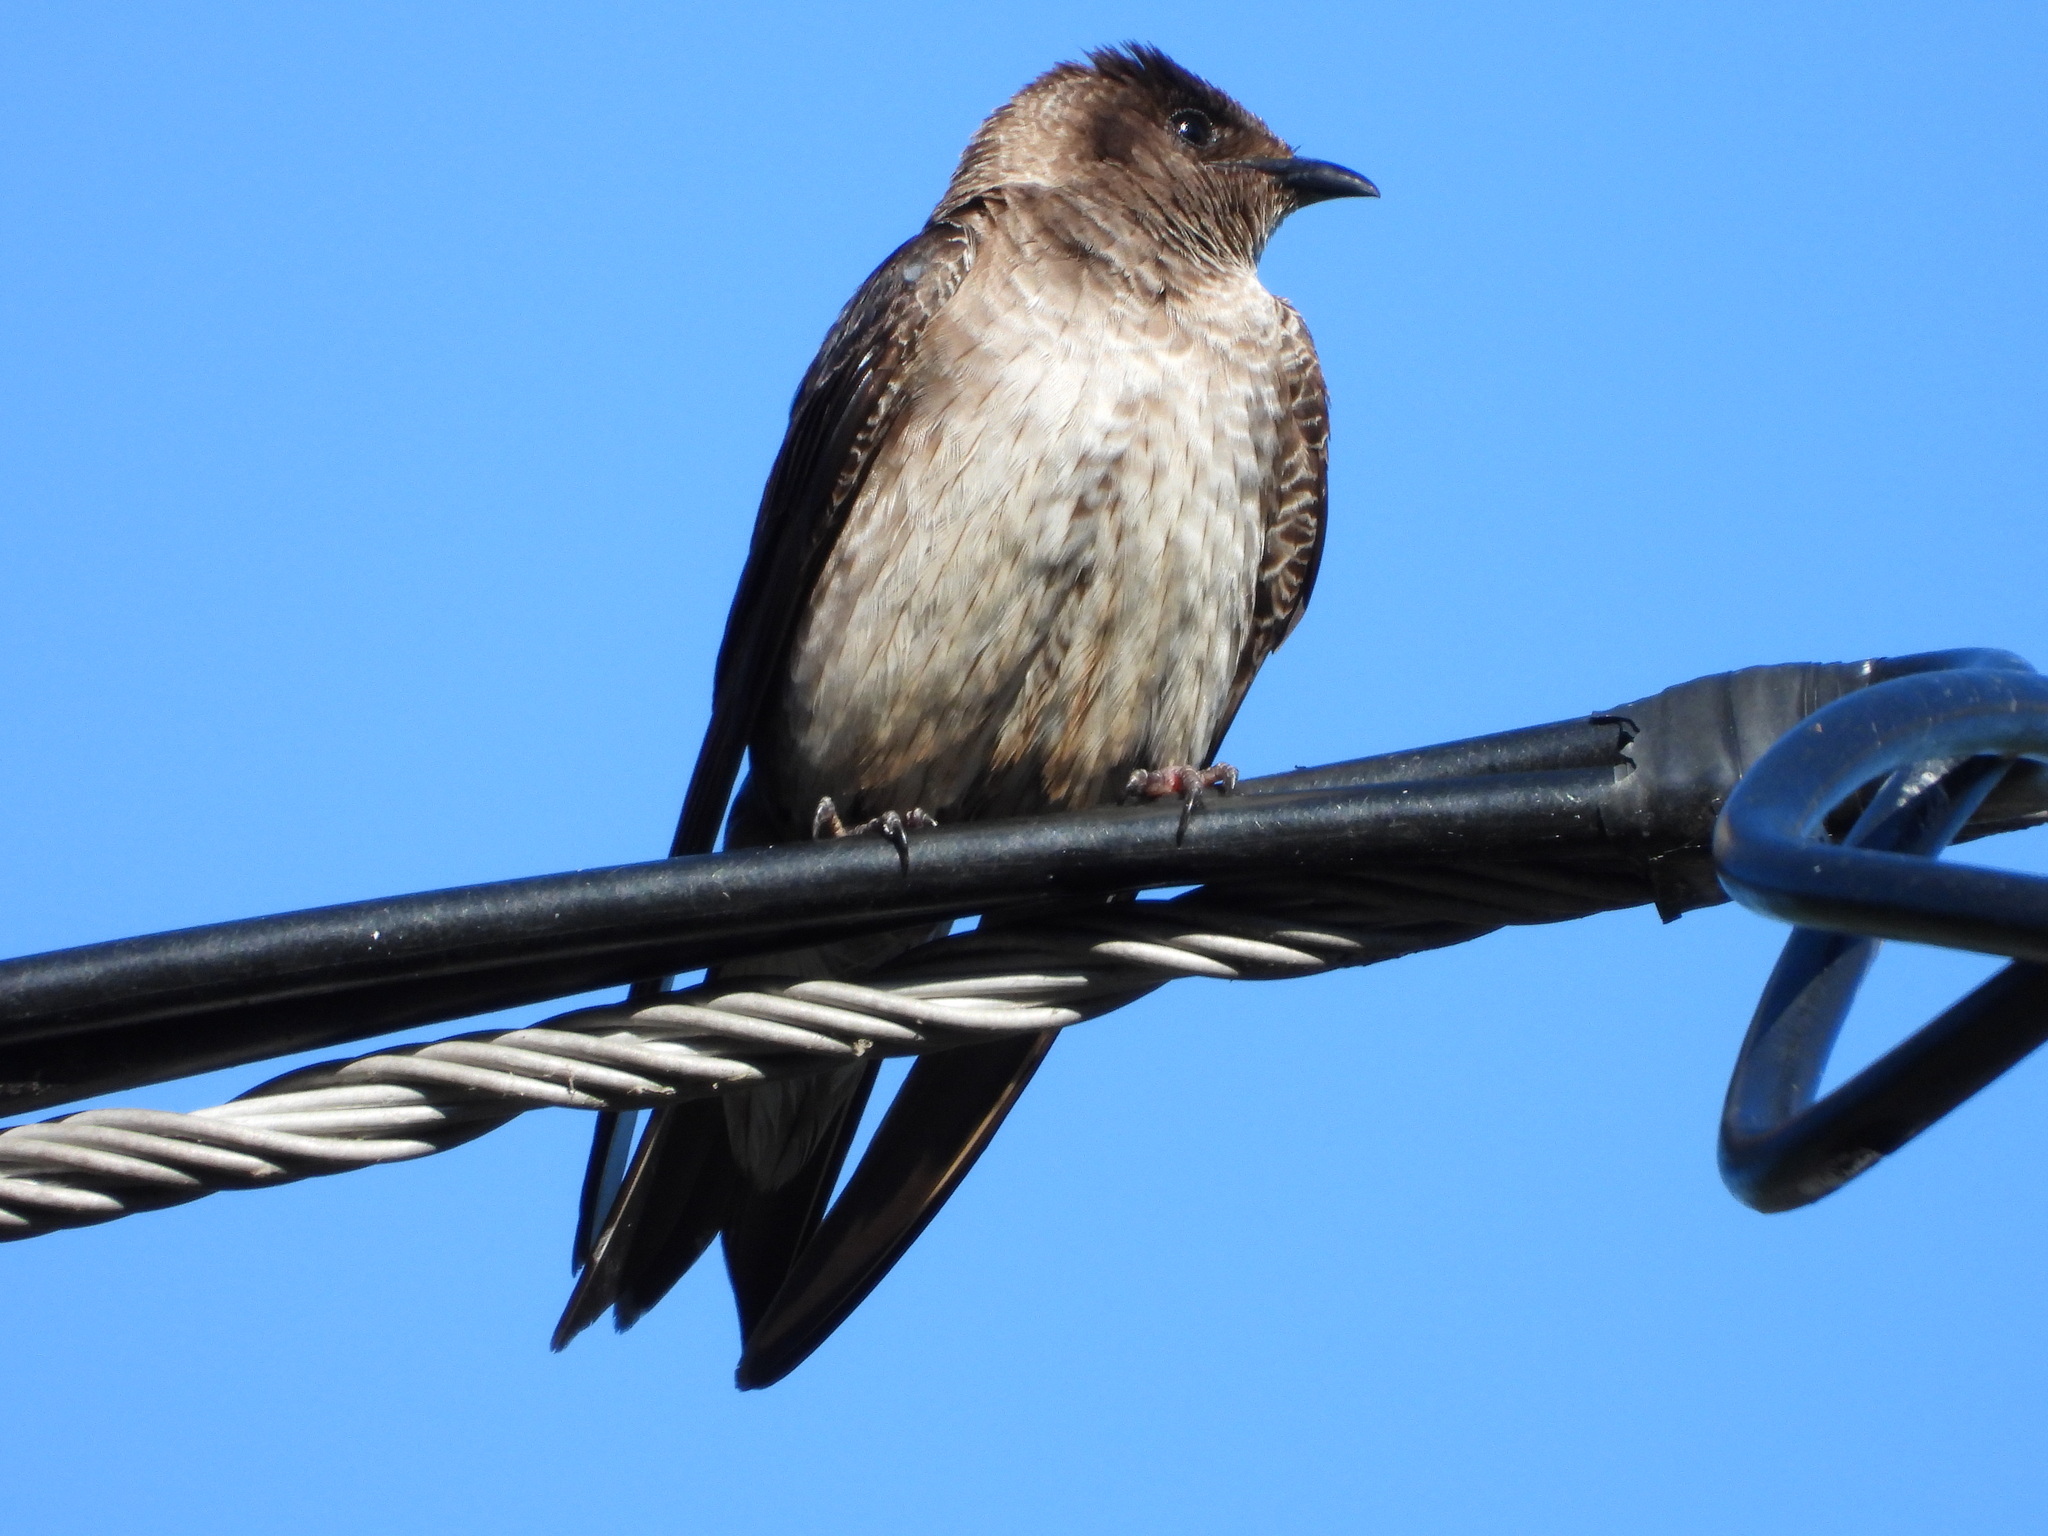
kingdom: Animalia
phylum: Chordata
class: Aves
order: Passeriformes
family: Hirundinidae
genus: Progne
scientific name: Progne subis
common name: Purple martin
